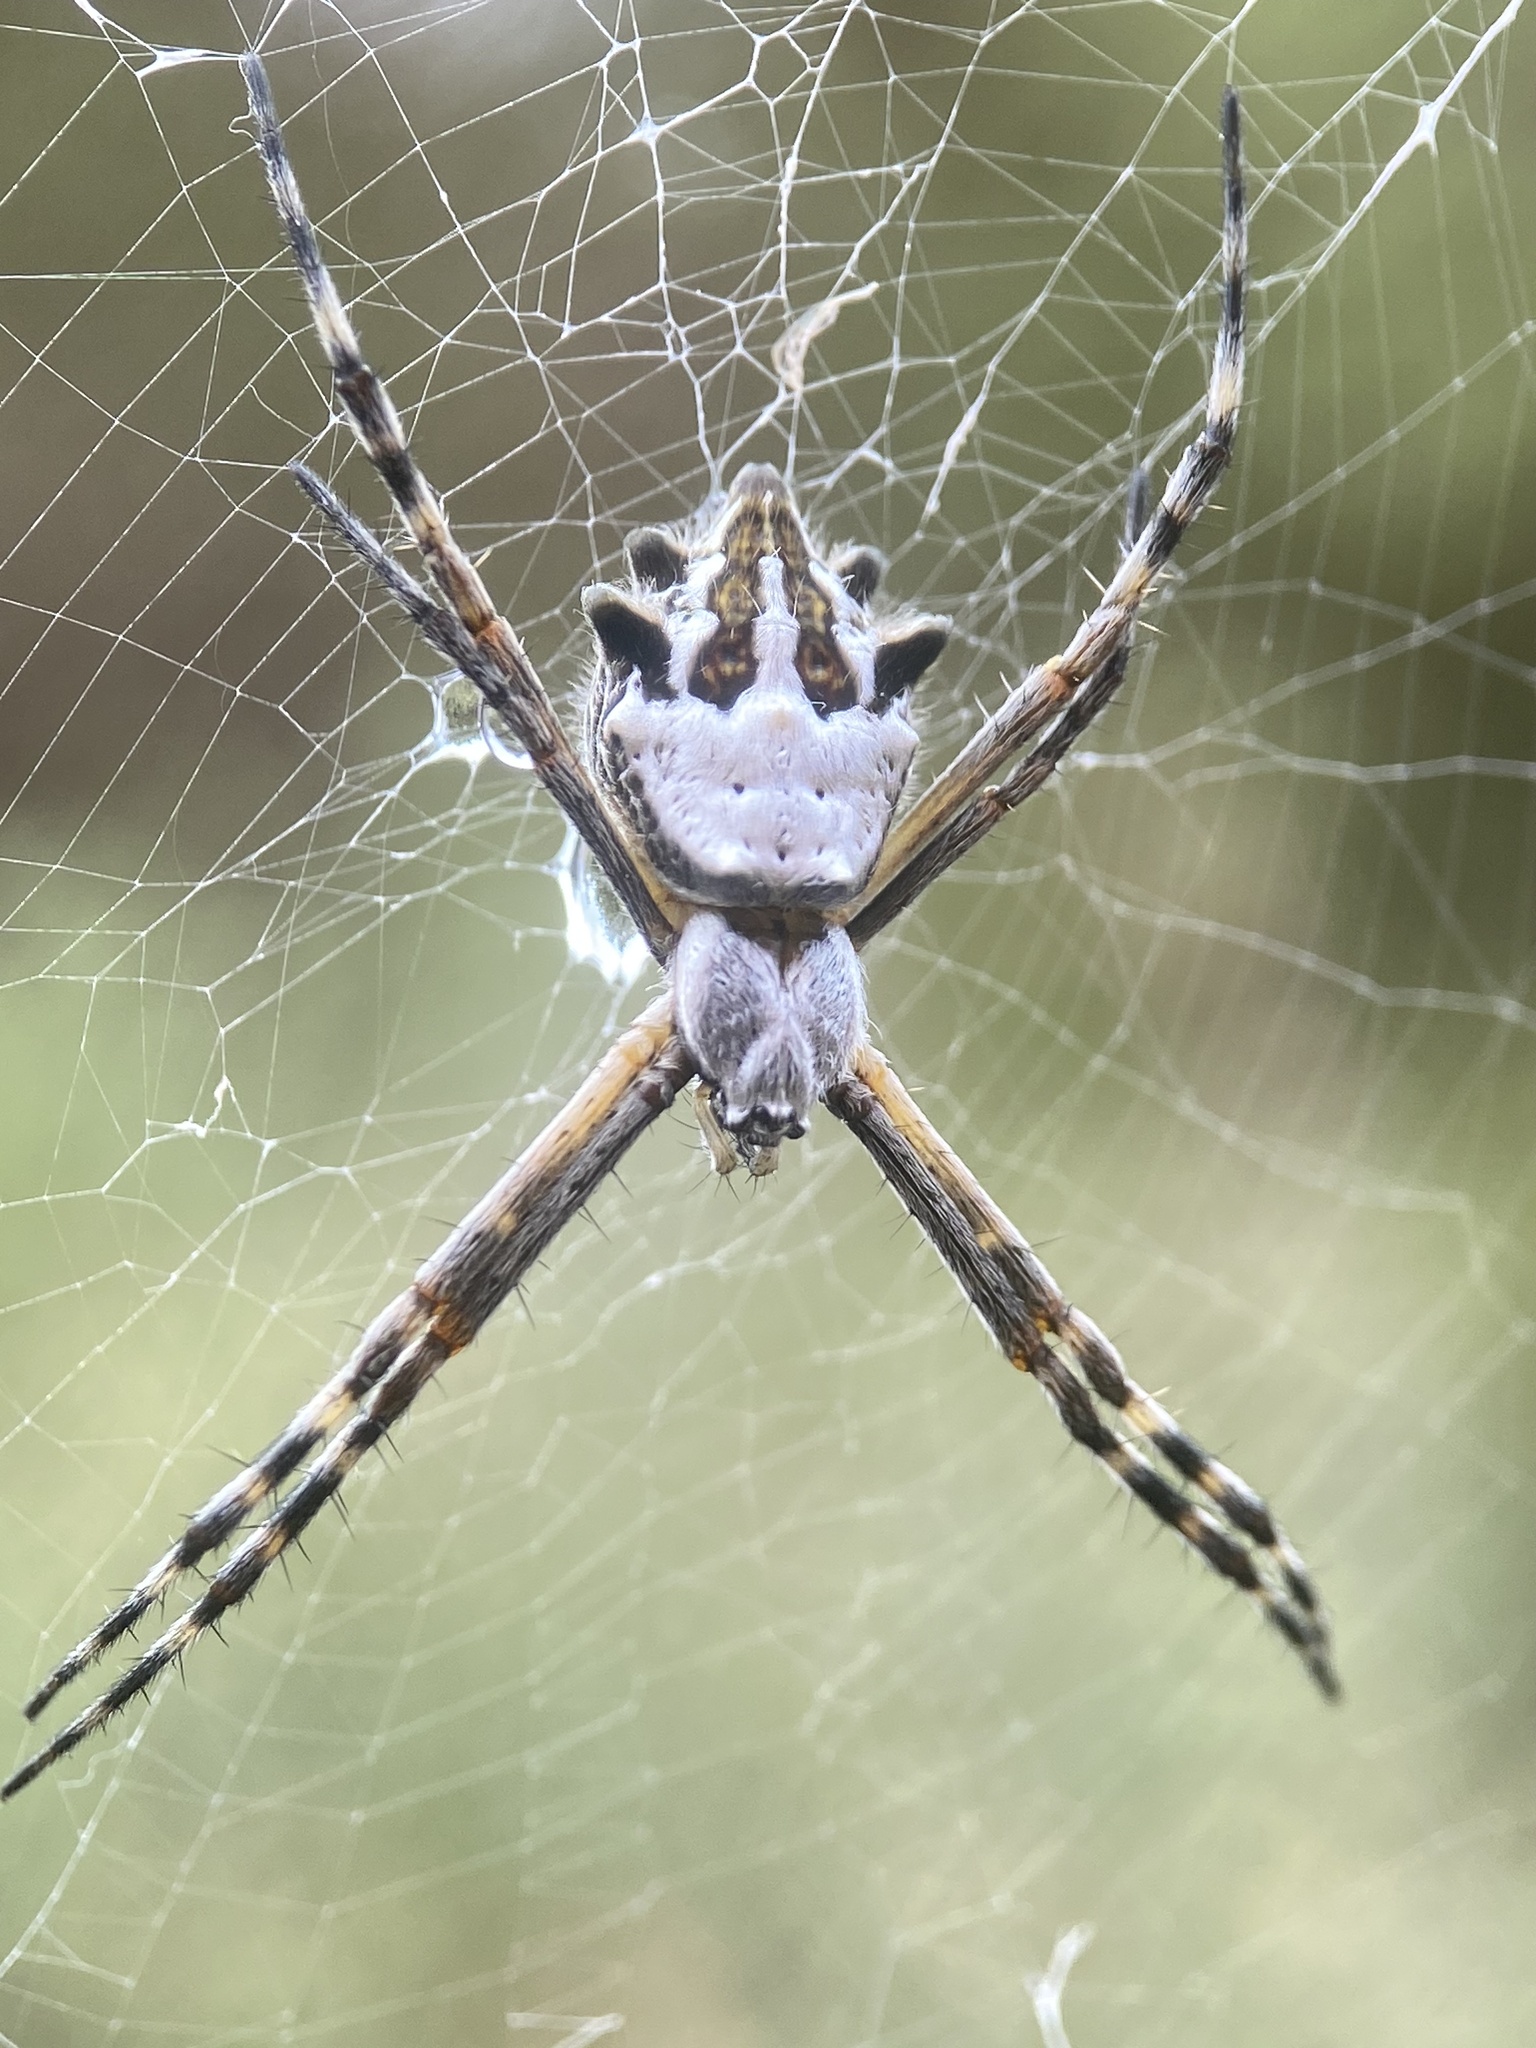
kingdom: Animalia
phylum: Arthropoda
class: Arachnida
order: Araneae
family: Araneidae
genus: Argiope
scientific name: Argiope argentata
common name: Orb weavers
